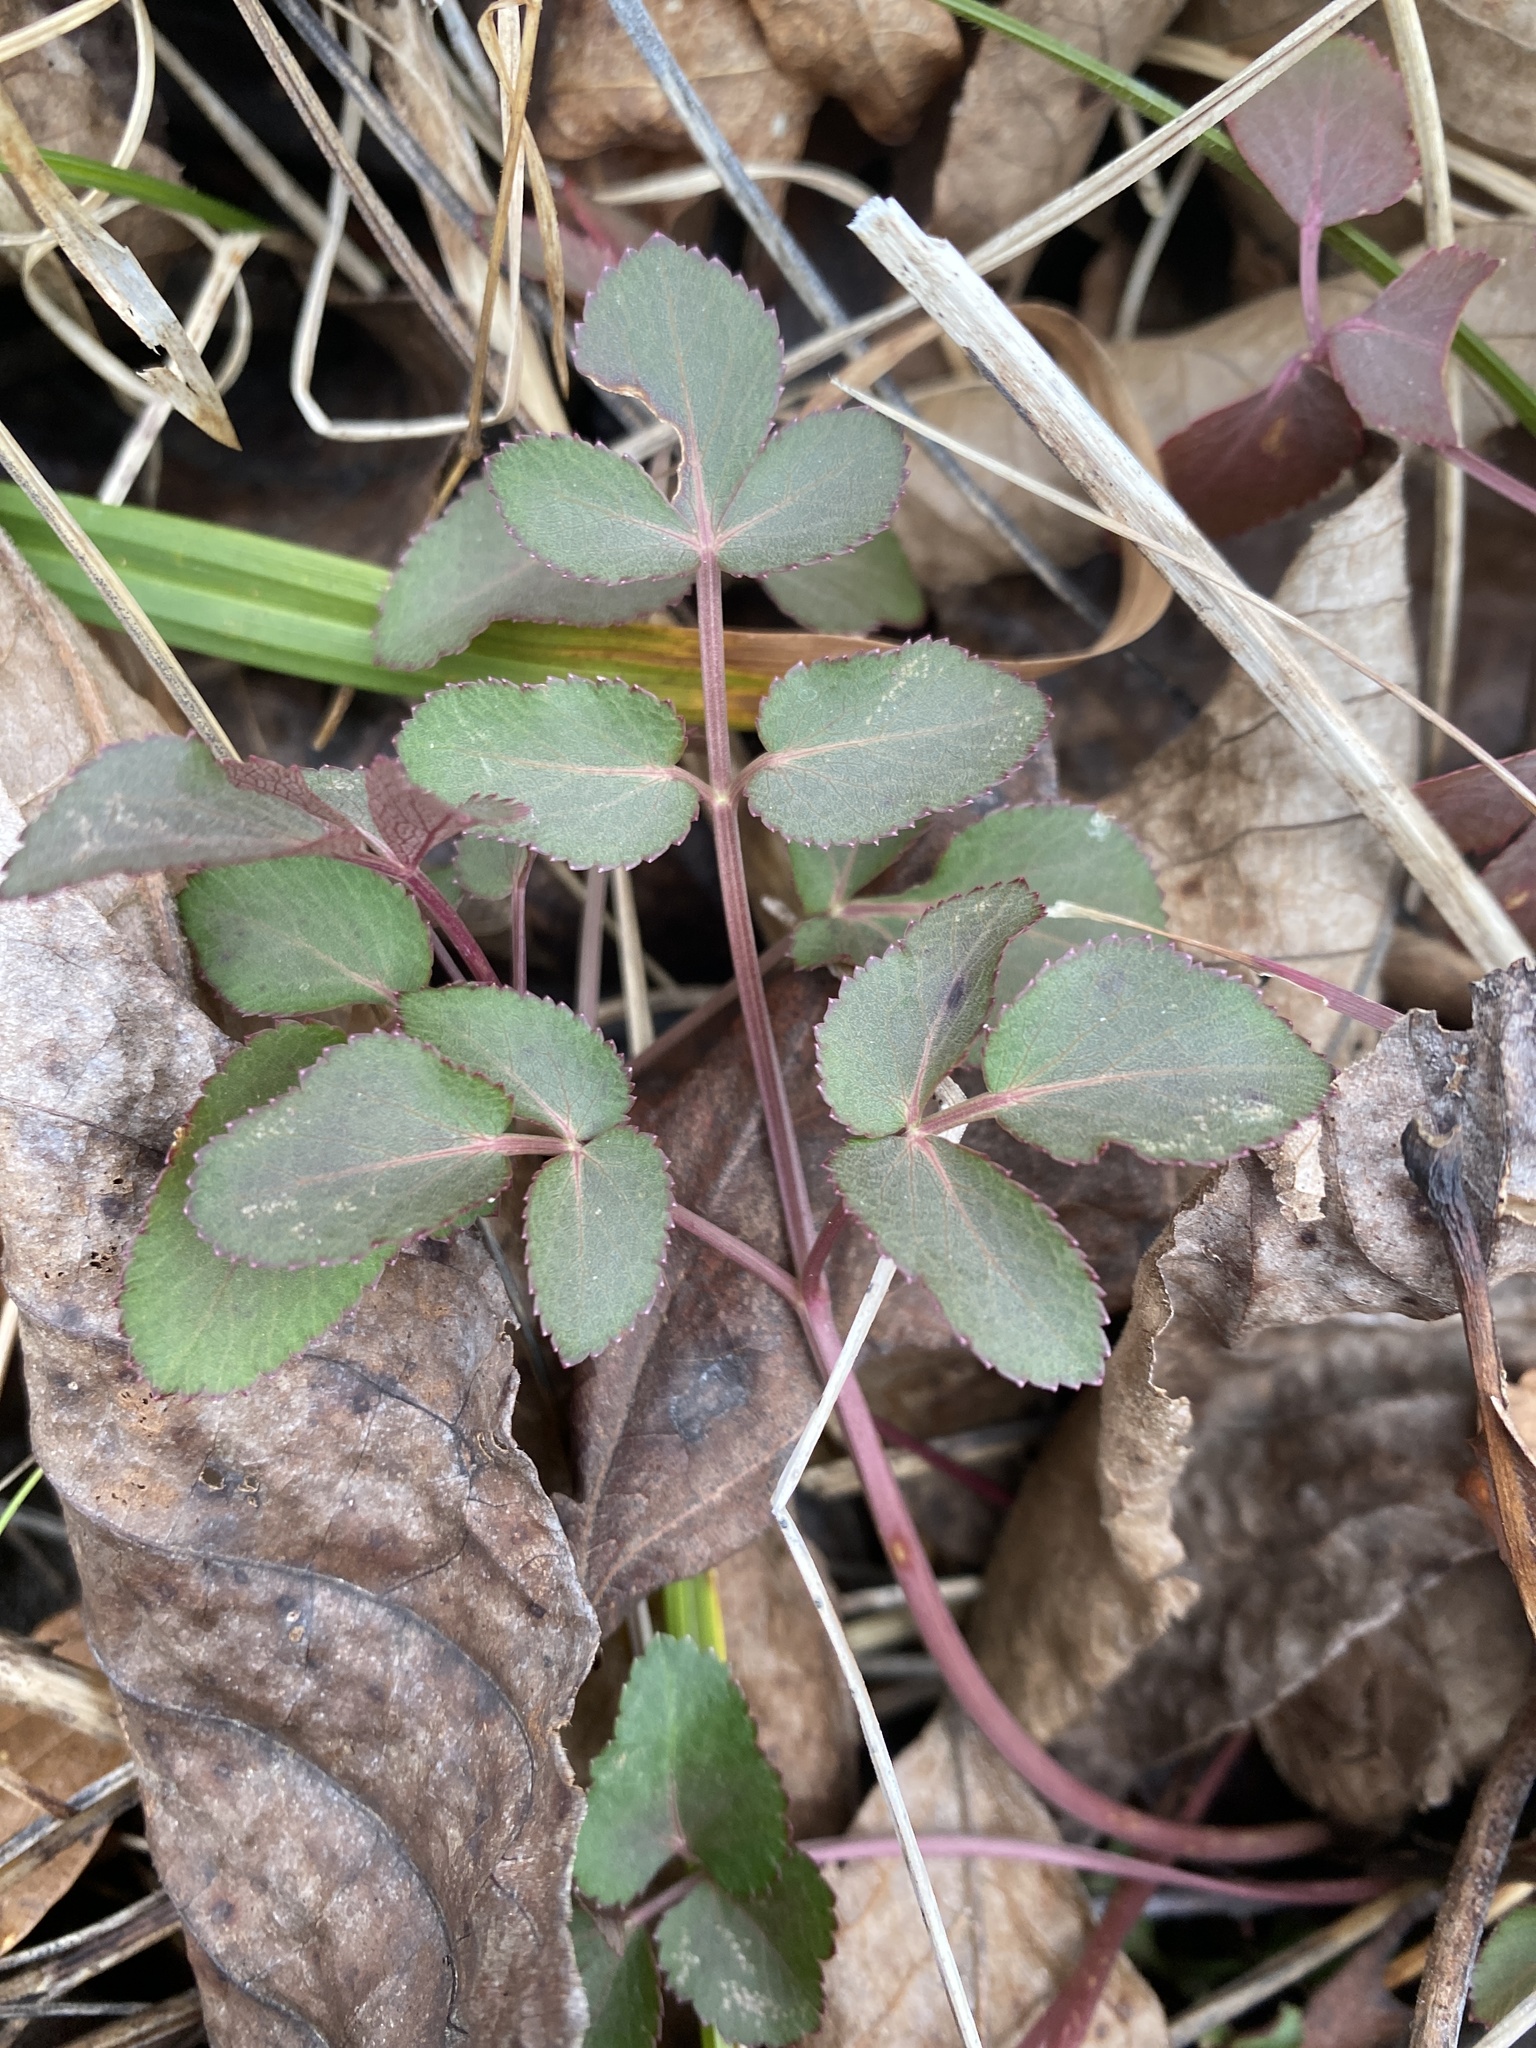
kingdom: Plantae
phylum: Tracheophyta
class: Magnoliopsida
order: Apiales
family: Apiaceae
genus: Zizia
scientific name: Zizia aurea
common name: Golden alexanders
